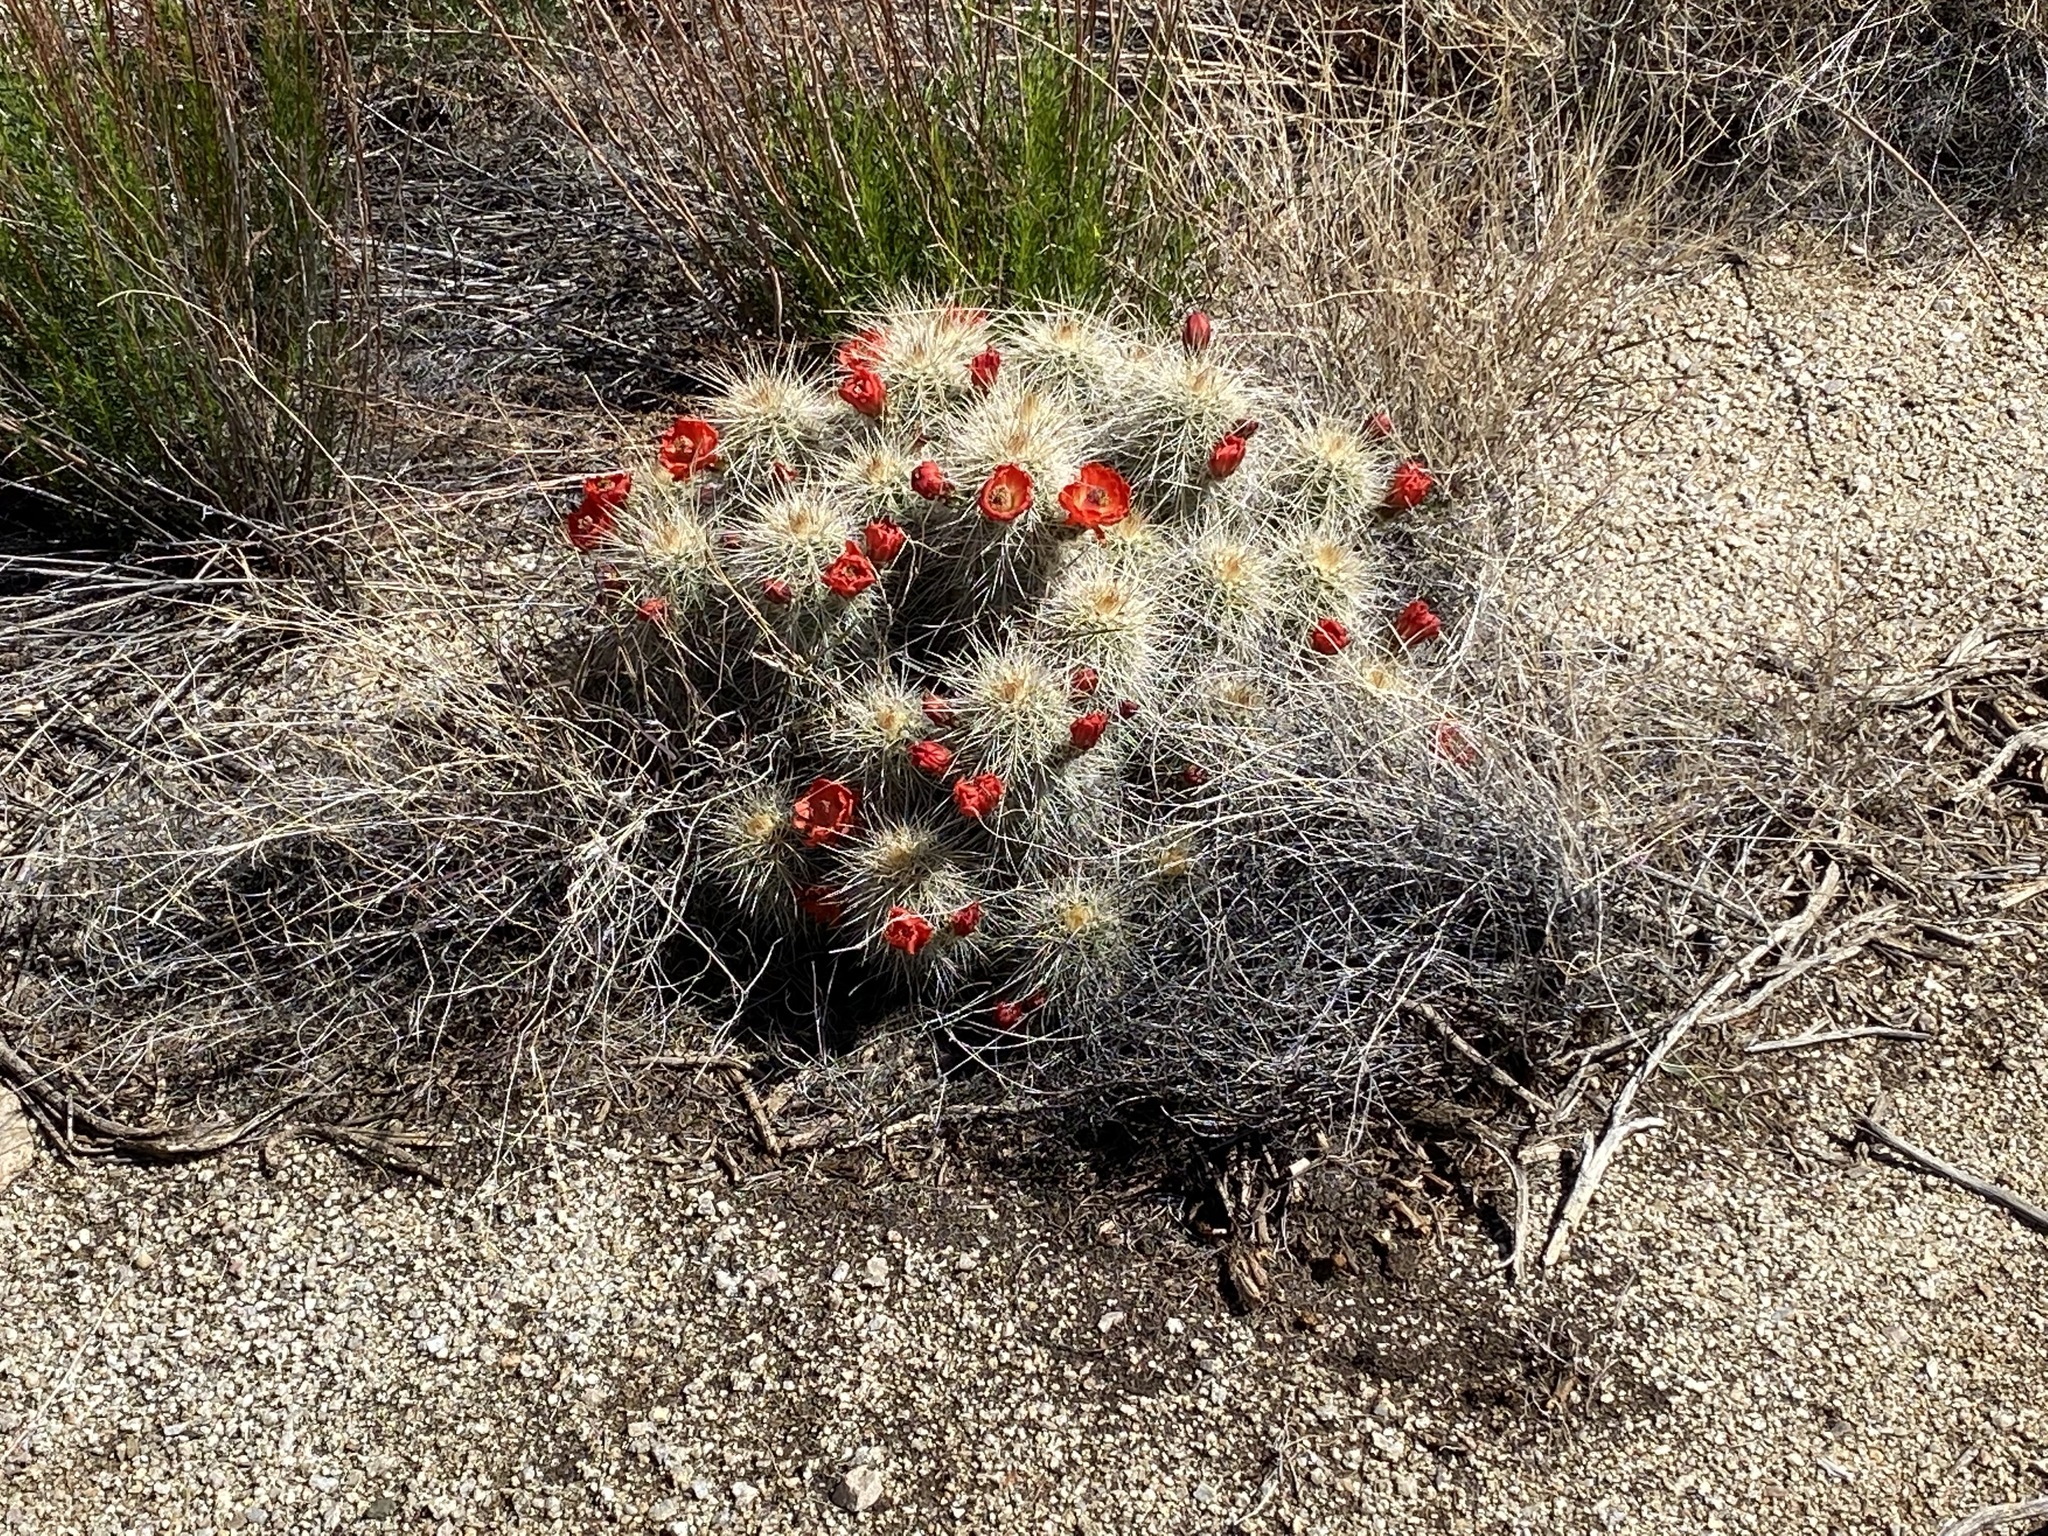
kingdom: Plantae
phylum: Tracheophyta
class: Magnoliopsida
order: Caryophyllales
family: Cactaceae
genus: Echinocereus
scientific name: Echinocereus coccineus
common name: Scarlet hedgehog cactus
